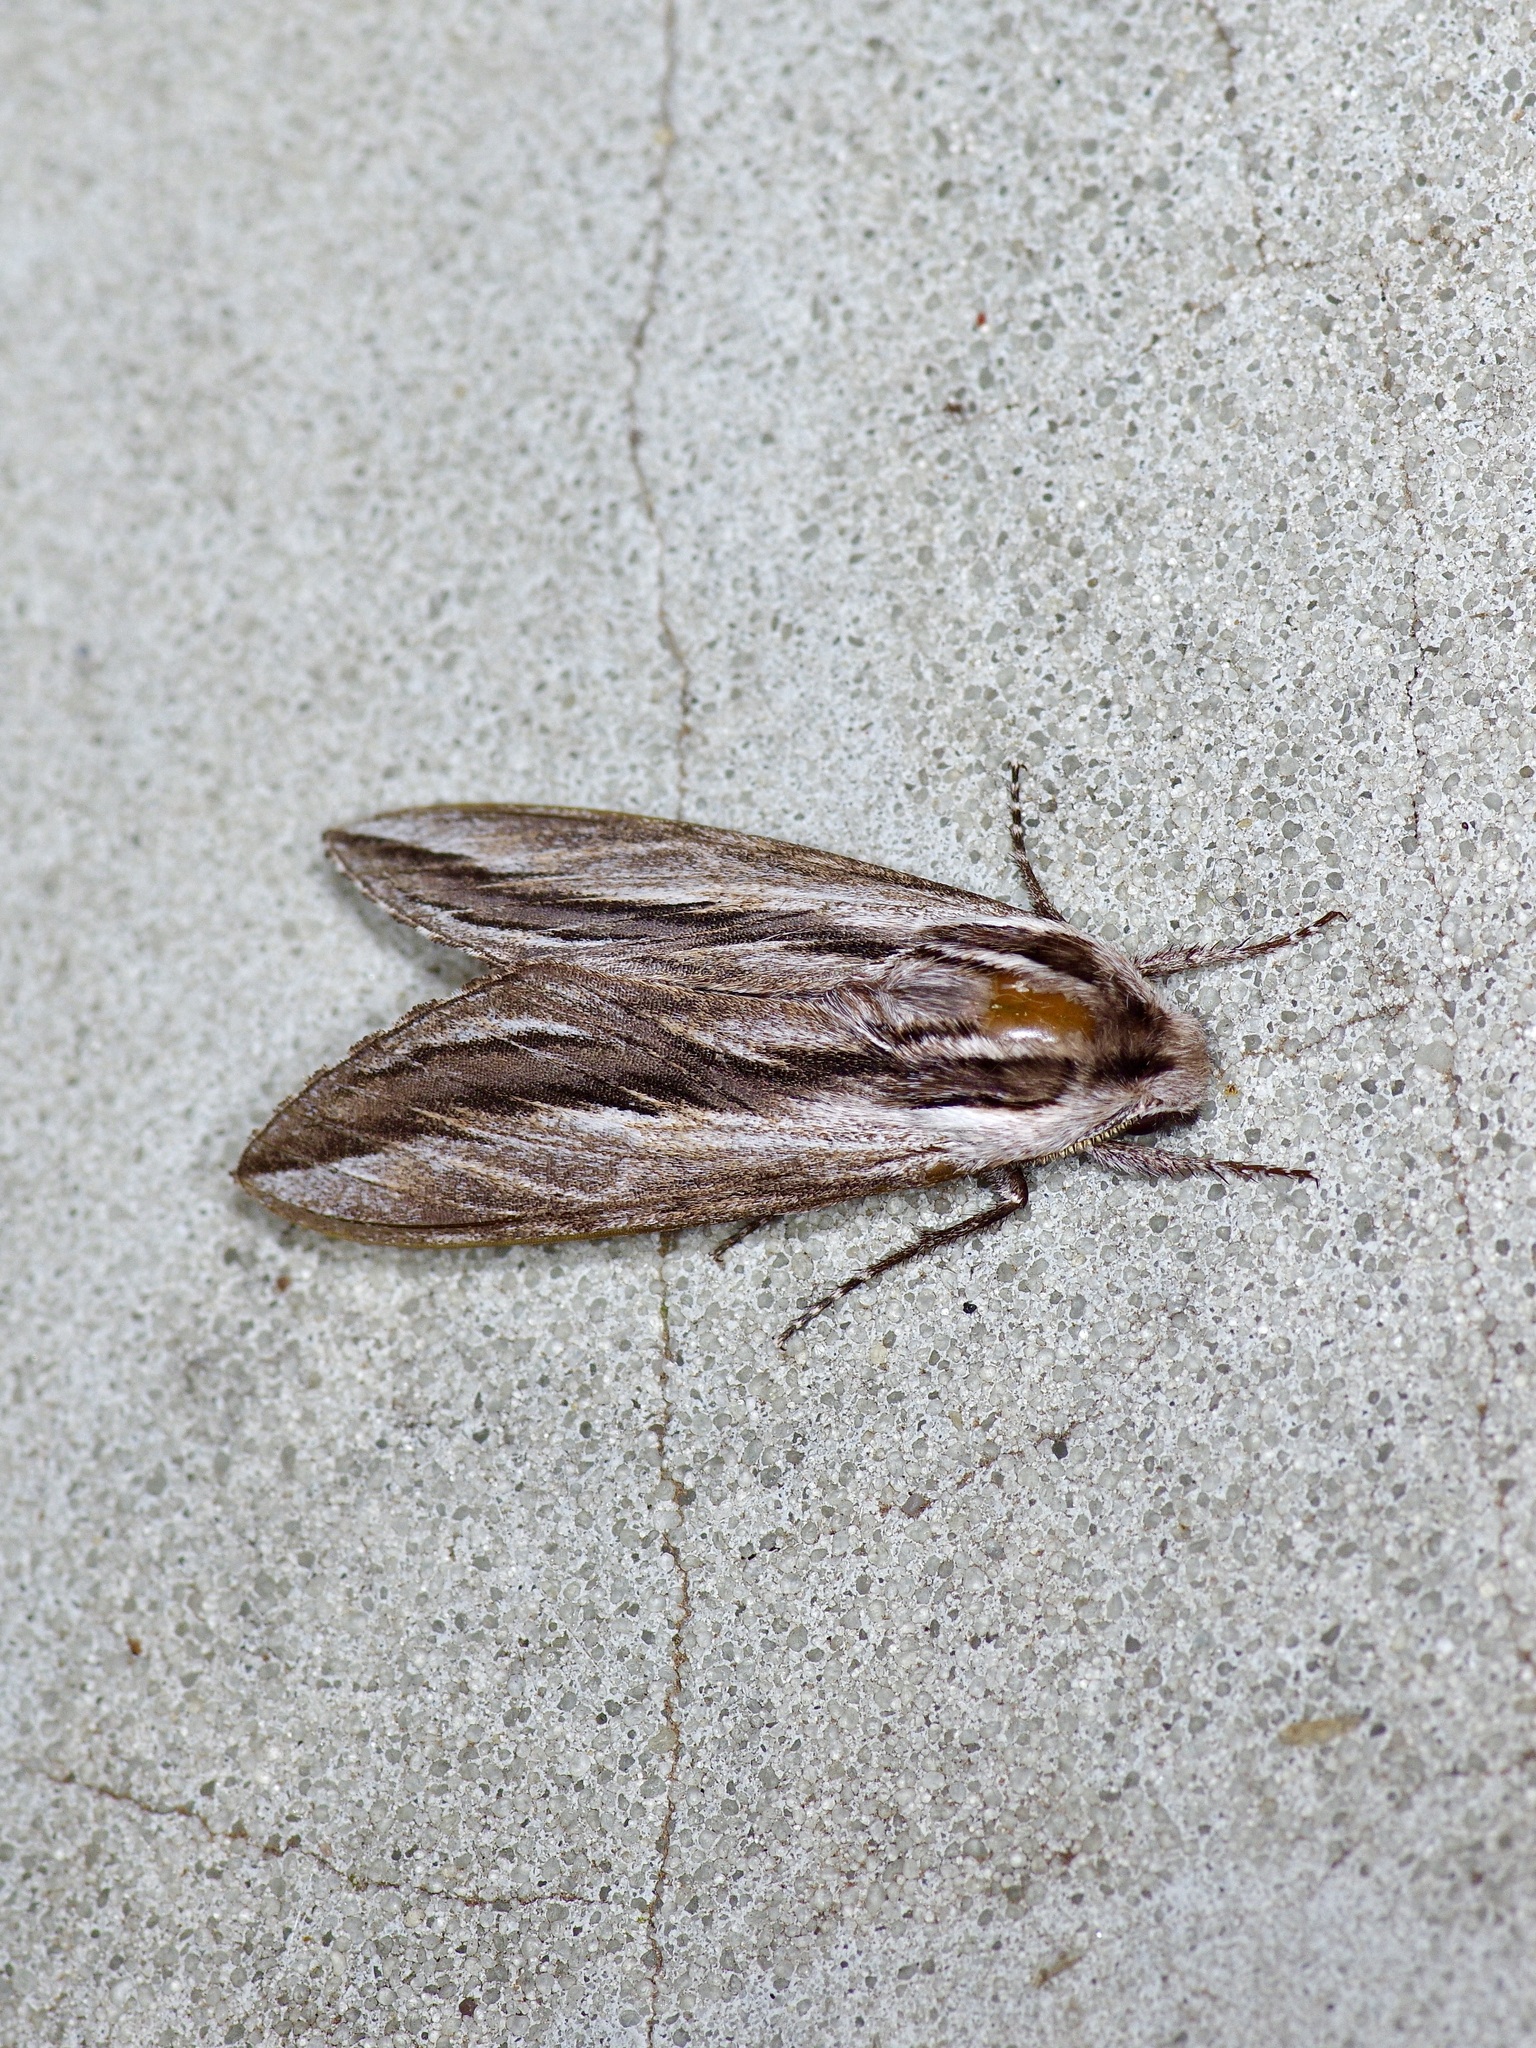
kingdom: Animalia
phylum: Arthropoda
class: Insecta
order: Lepidoptera
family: Sphingidae
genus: Sphinx
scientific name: Sphinx vanbuskirki
